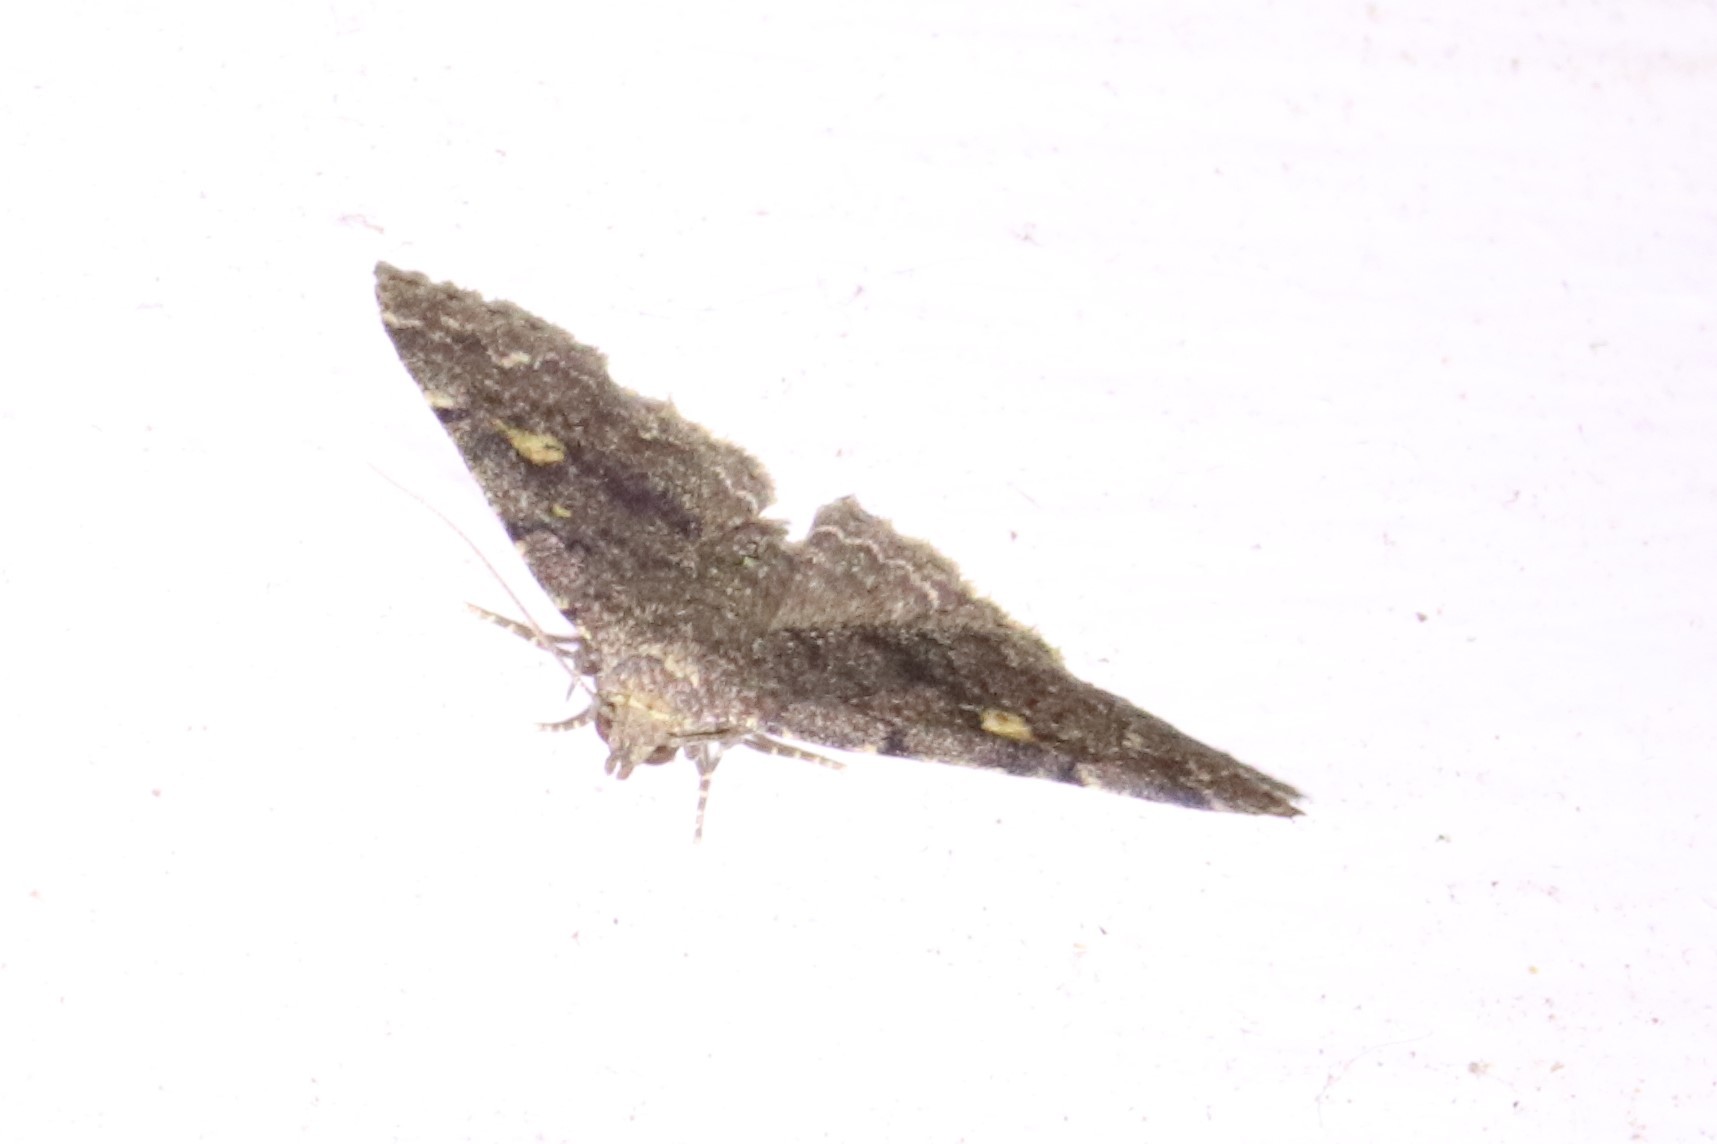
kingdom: Animalia
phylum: Arthropoda
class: Insecta
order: Lepidoptera
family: Erebidae
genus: Idia
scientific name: Idia aemula
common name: Common idia moth
